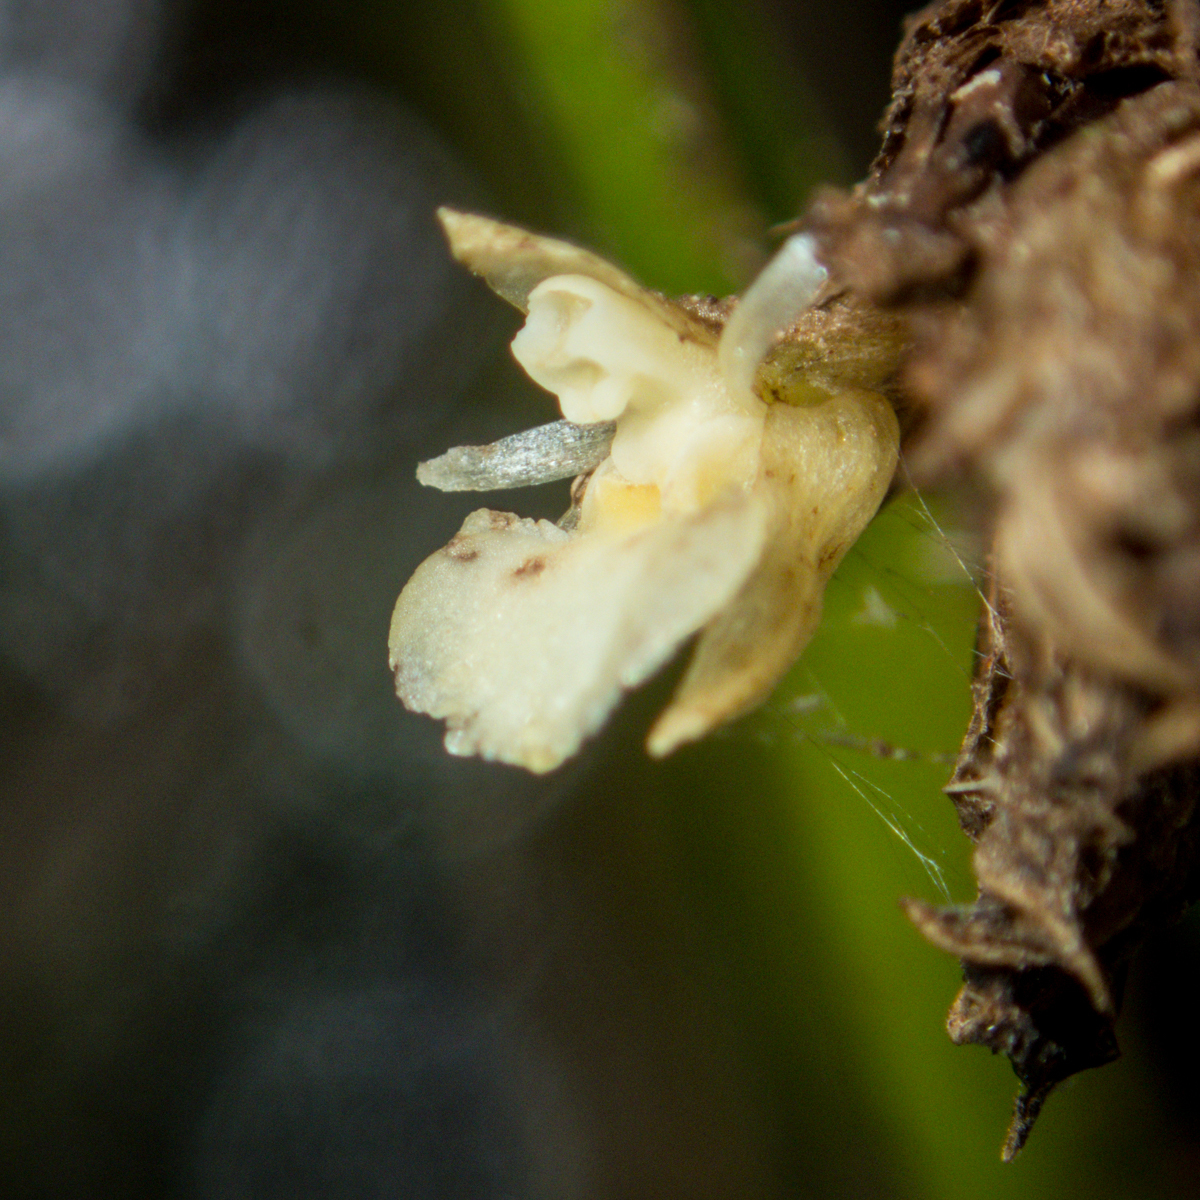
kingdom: Plantae
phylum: Tracheophyta
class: Liliopsida
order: Asparagales
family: Orchidaceae
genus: Agrostophyllum
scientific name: Agrostophyllum planicaule
